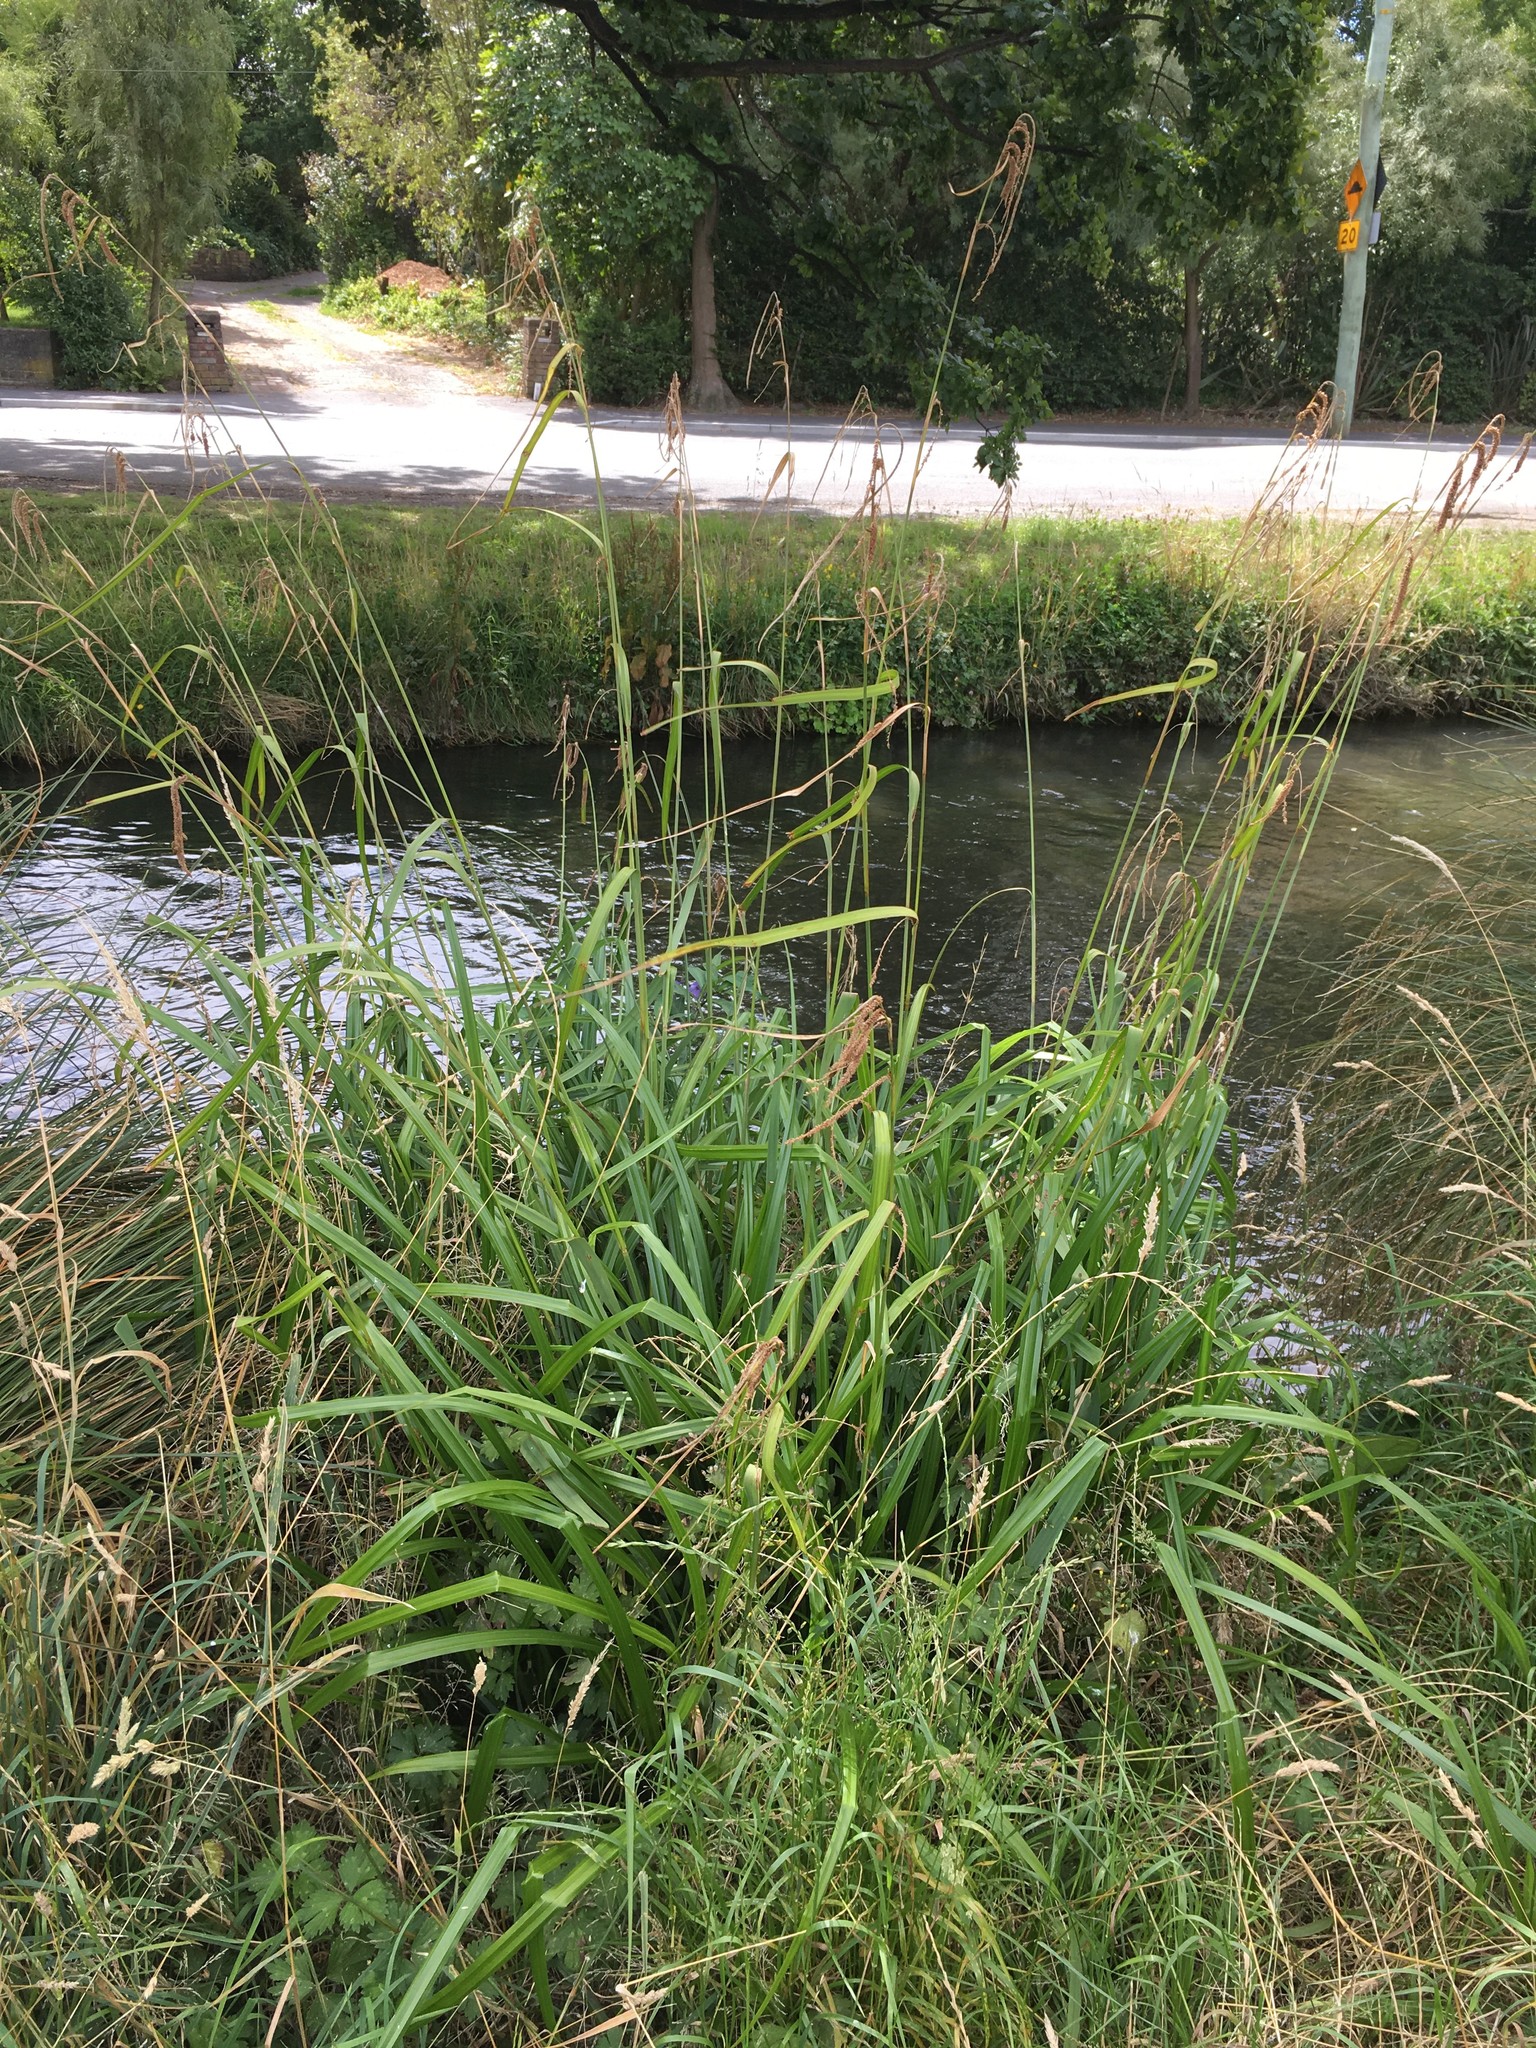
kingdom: Plantae
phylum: Tracheophyta
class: Liliopsida
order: Poales
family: Cyperaceae
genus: Carex
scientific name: Carex pendula
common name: Pendulous sedge
